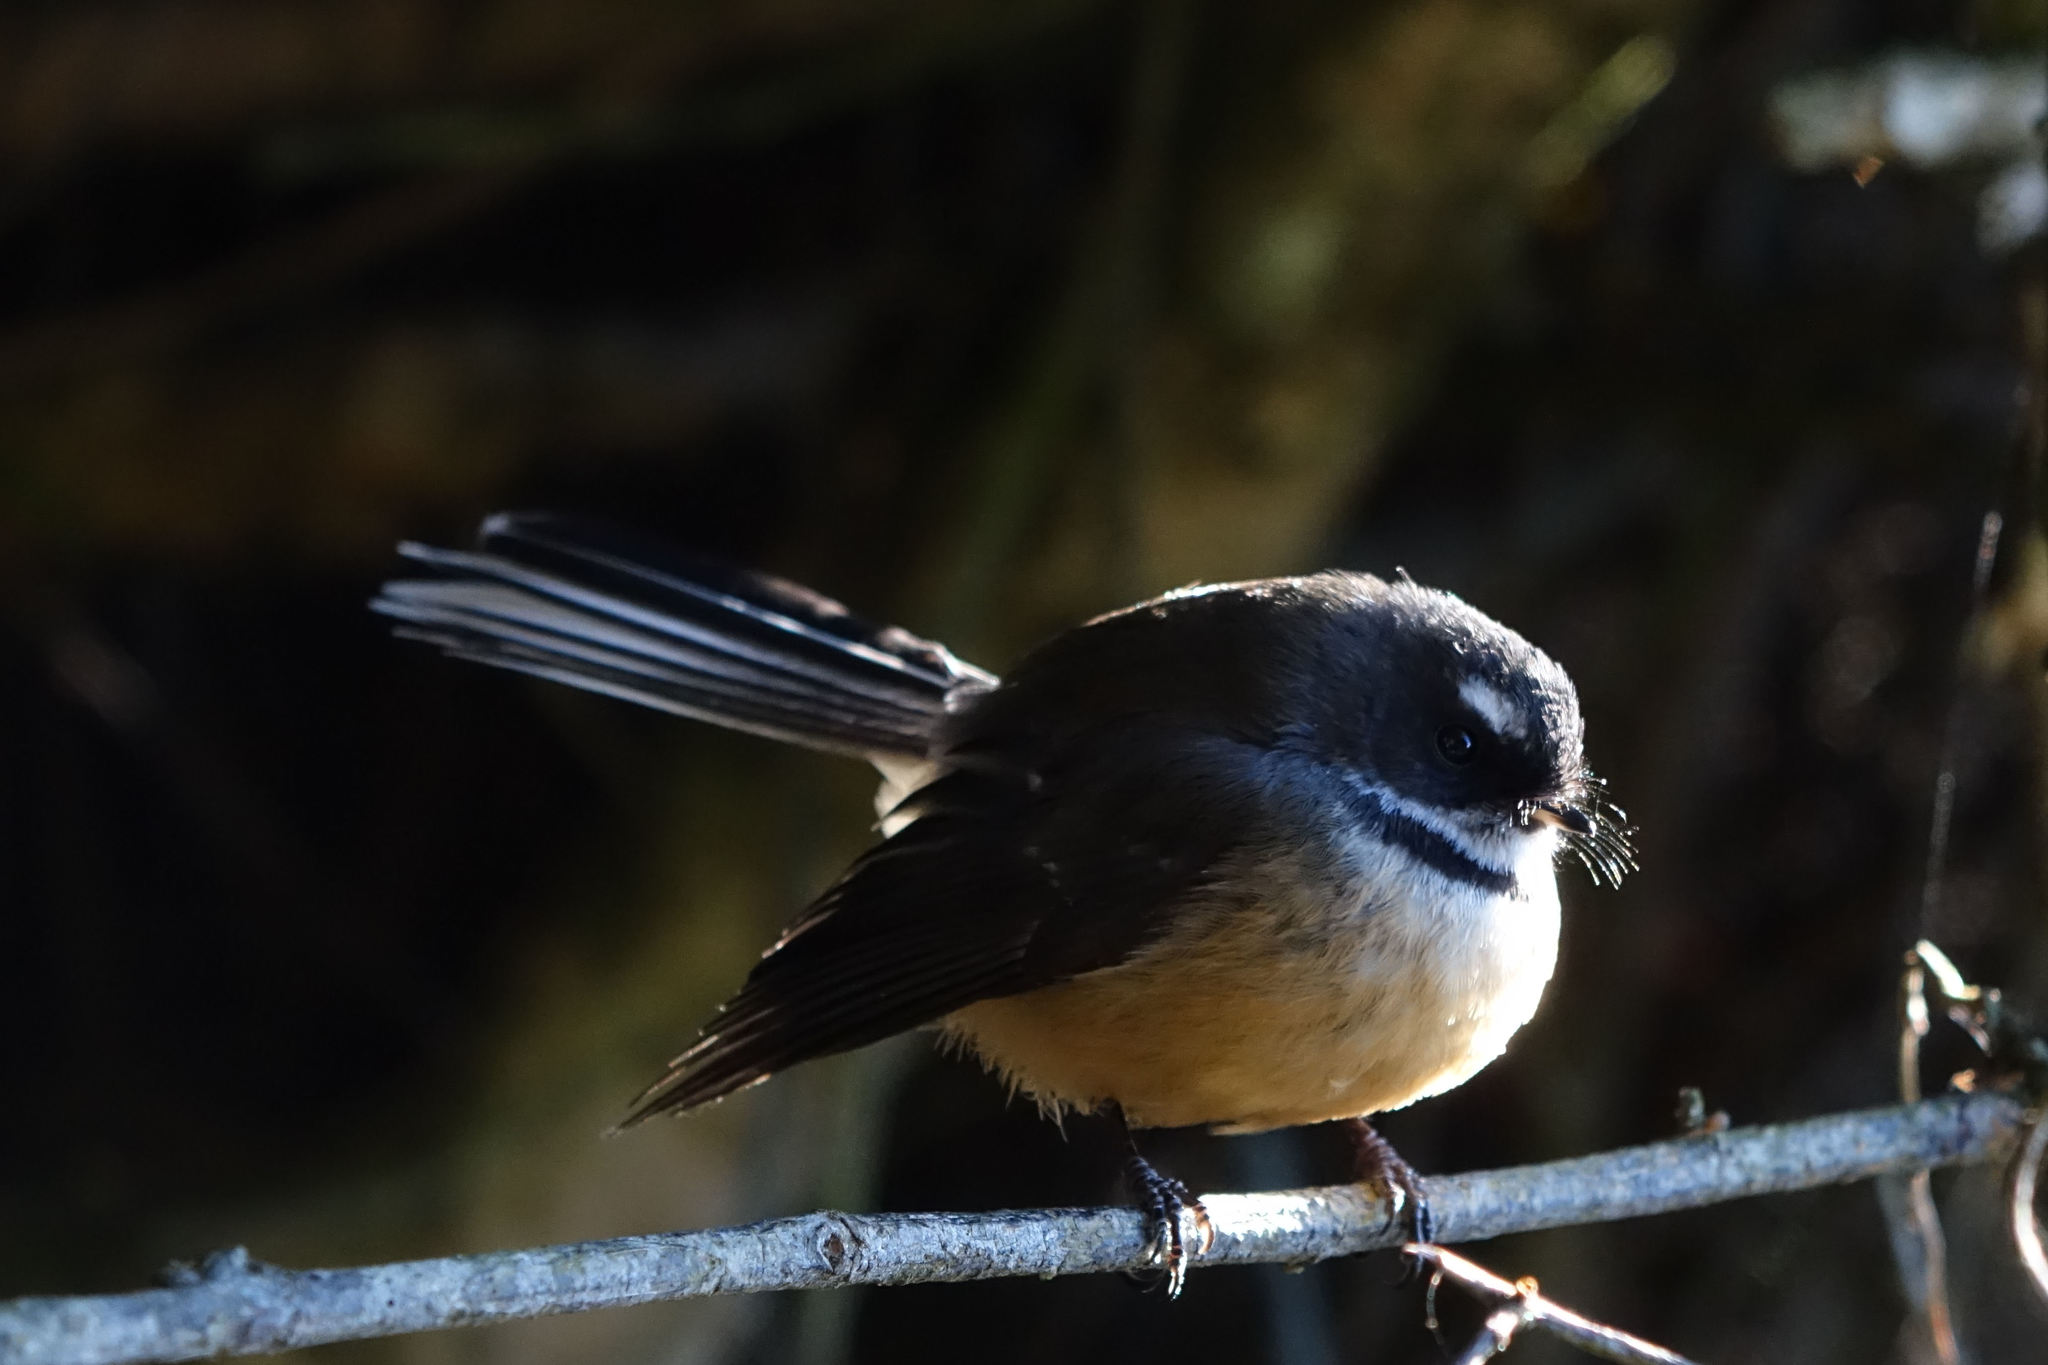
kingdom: Animalia
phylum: Chordata
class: Aves
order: Passeriformes
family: Rhipiduridae
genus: Rhipidura
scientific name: Rhipidura fuliginosa
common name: New zealand fantail
